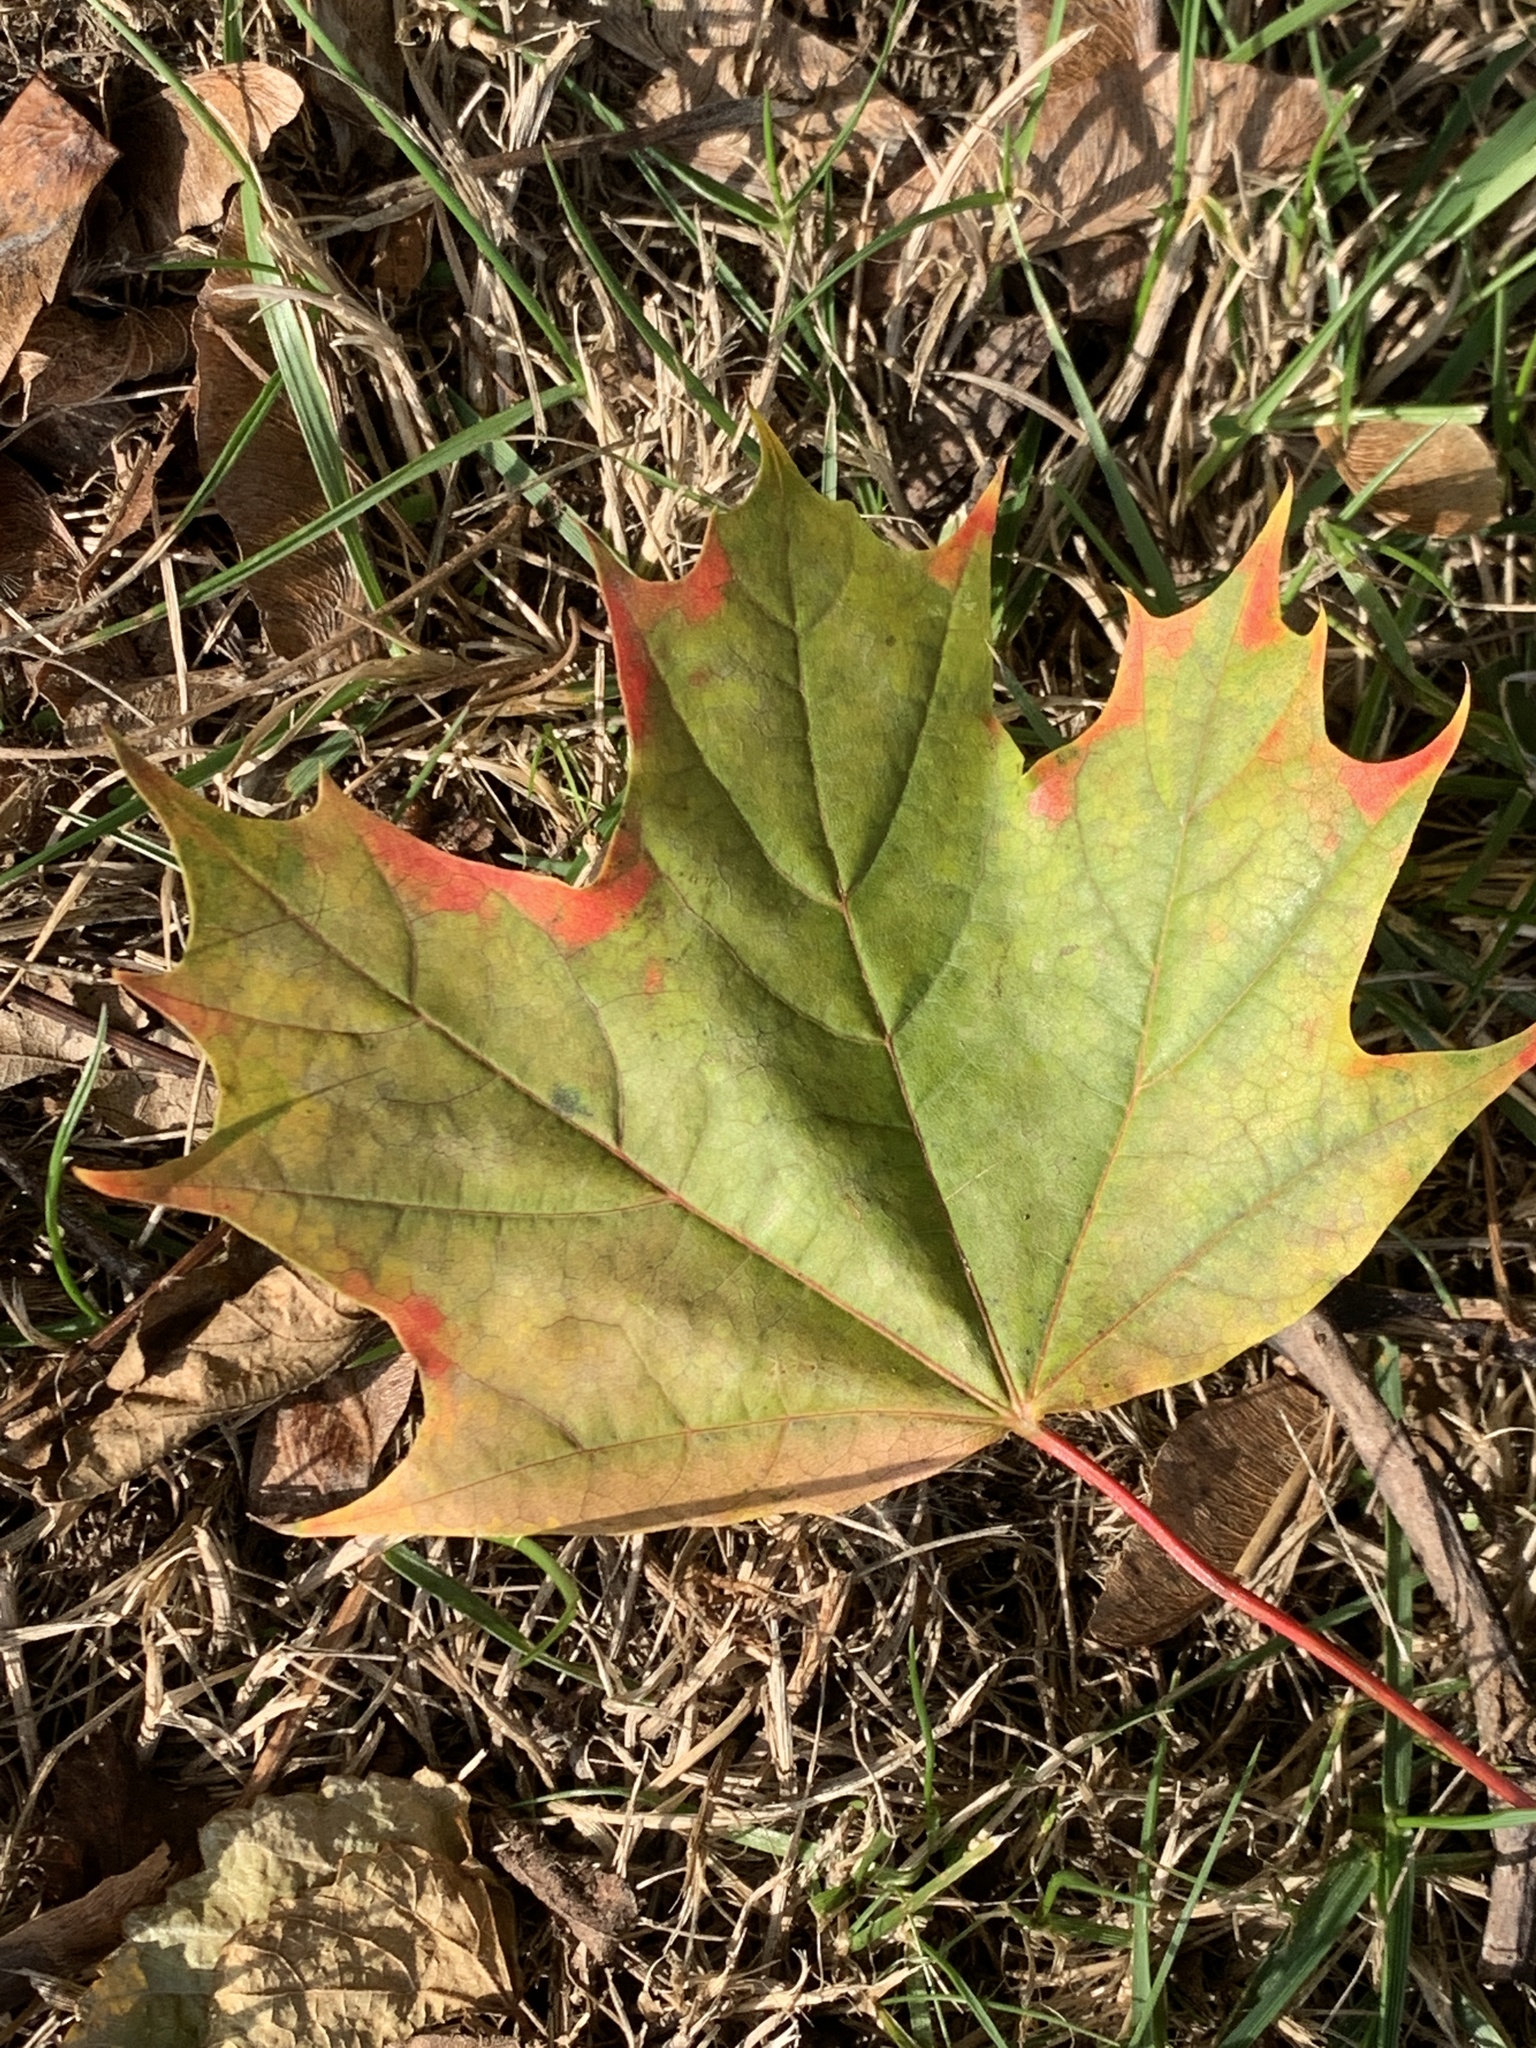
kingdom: Plantae
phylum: Tracheophyta
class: Magnoliopsida
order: Sapindales
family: Sapindaceae
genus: Acer
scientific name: Acer platanoides
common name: Norway maple
